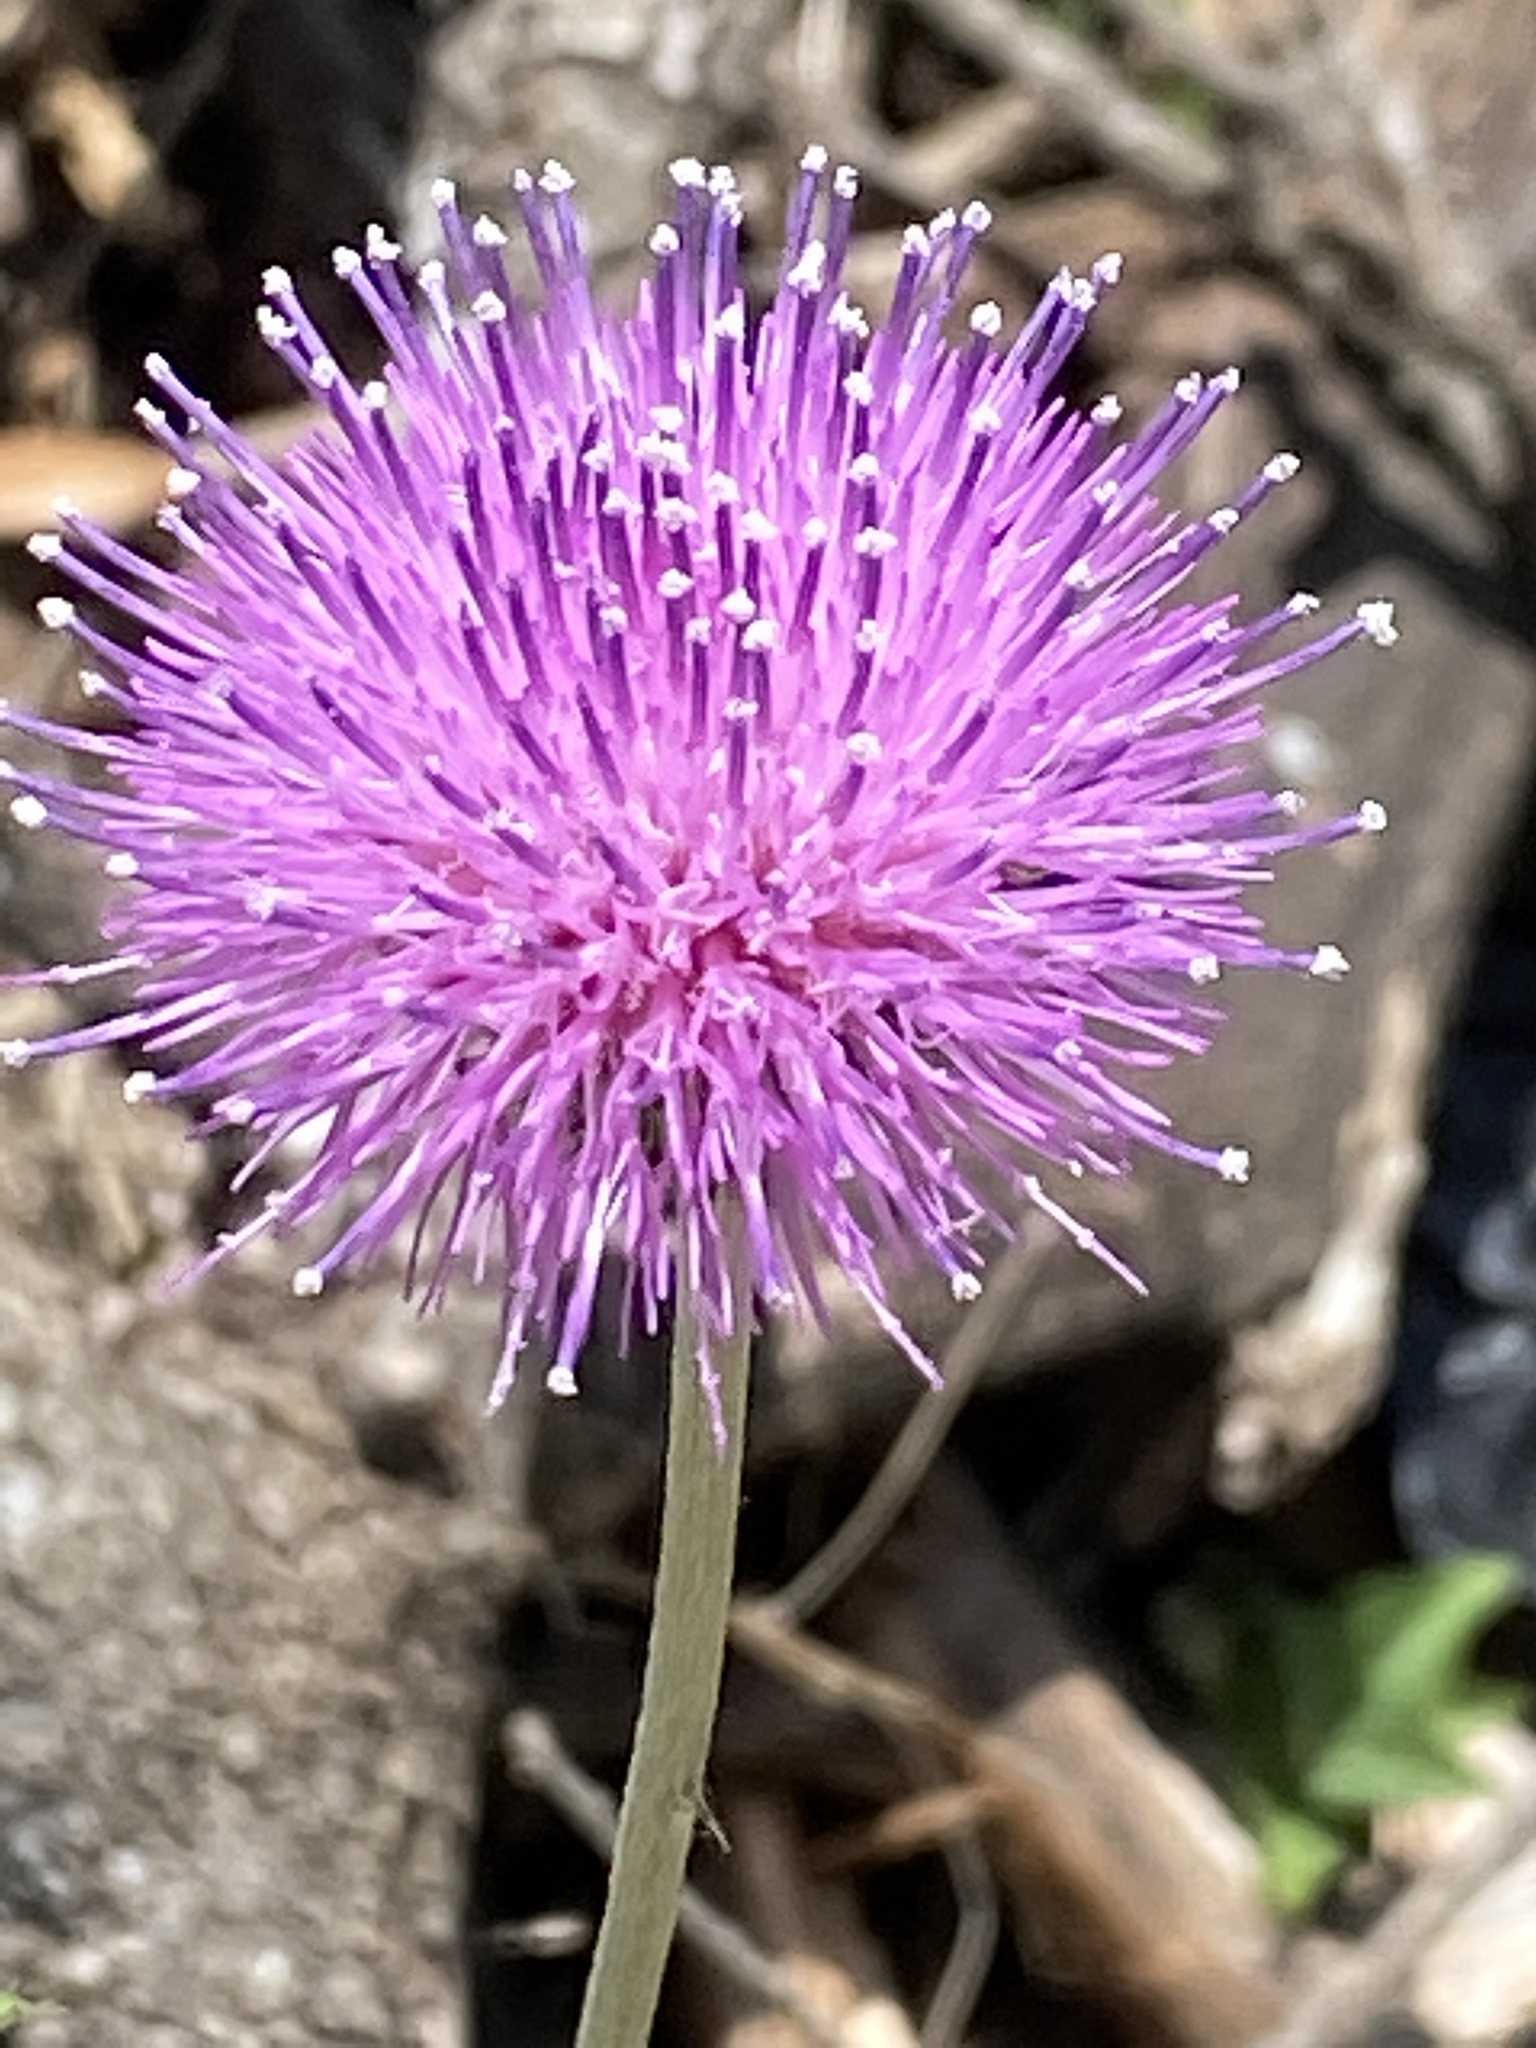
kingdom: Plantae
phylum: Tracheophyta
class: Magnoliopsida
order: Asterales
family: Asteraceae
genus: Cirsium
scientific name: Cirsium texanum
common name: Texas purple thistle
